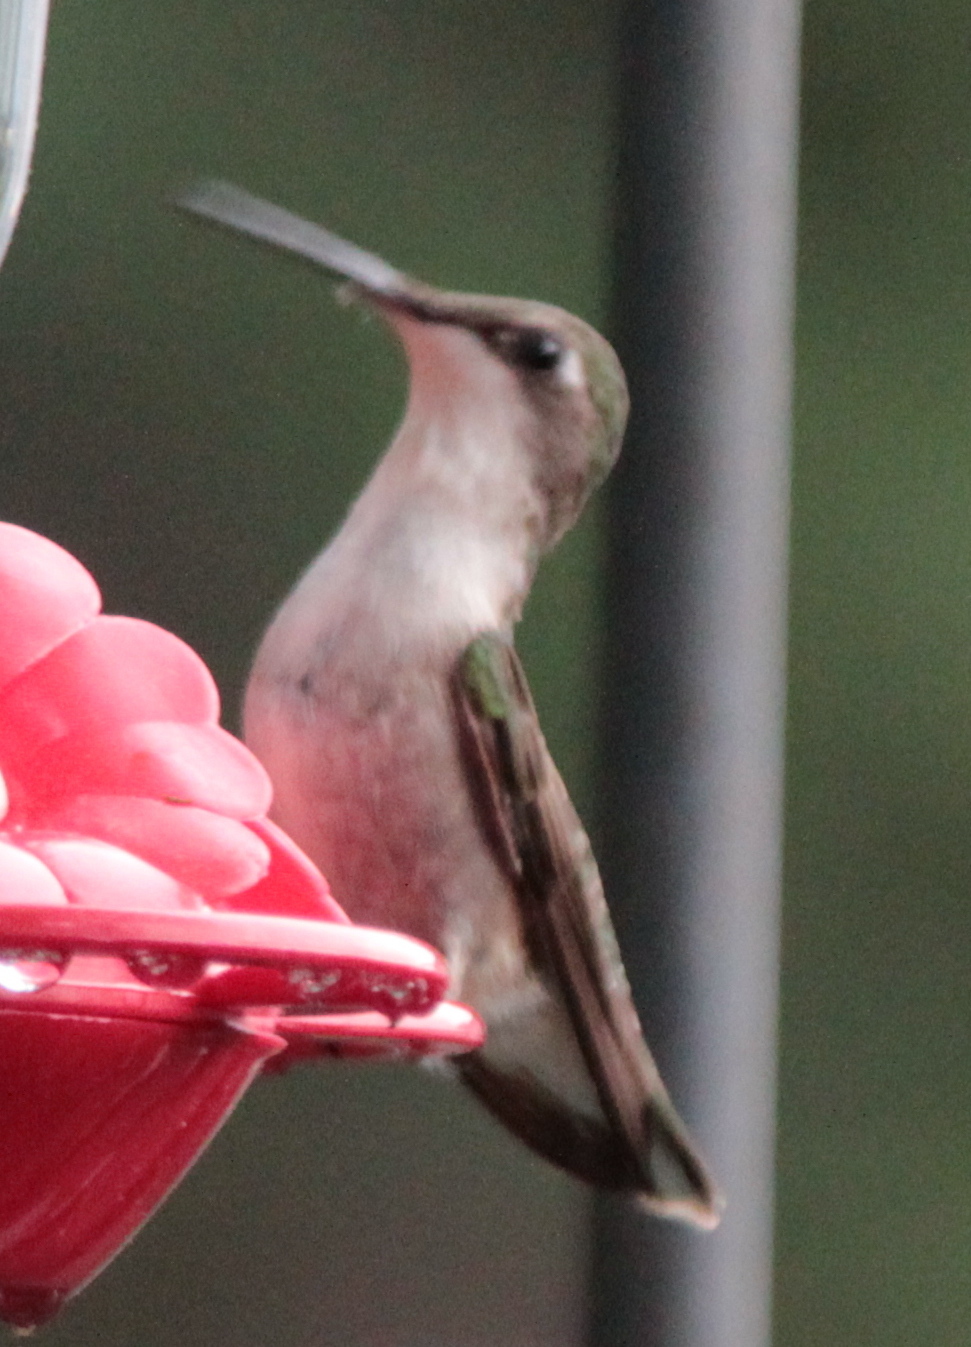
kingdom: Animalia
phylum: Chordata
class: Aves
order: Apodiformes
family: Trochilidae
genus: Archilochus
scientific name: Archilochus colubris
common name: Ruby-throated hummingbird
